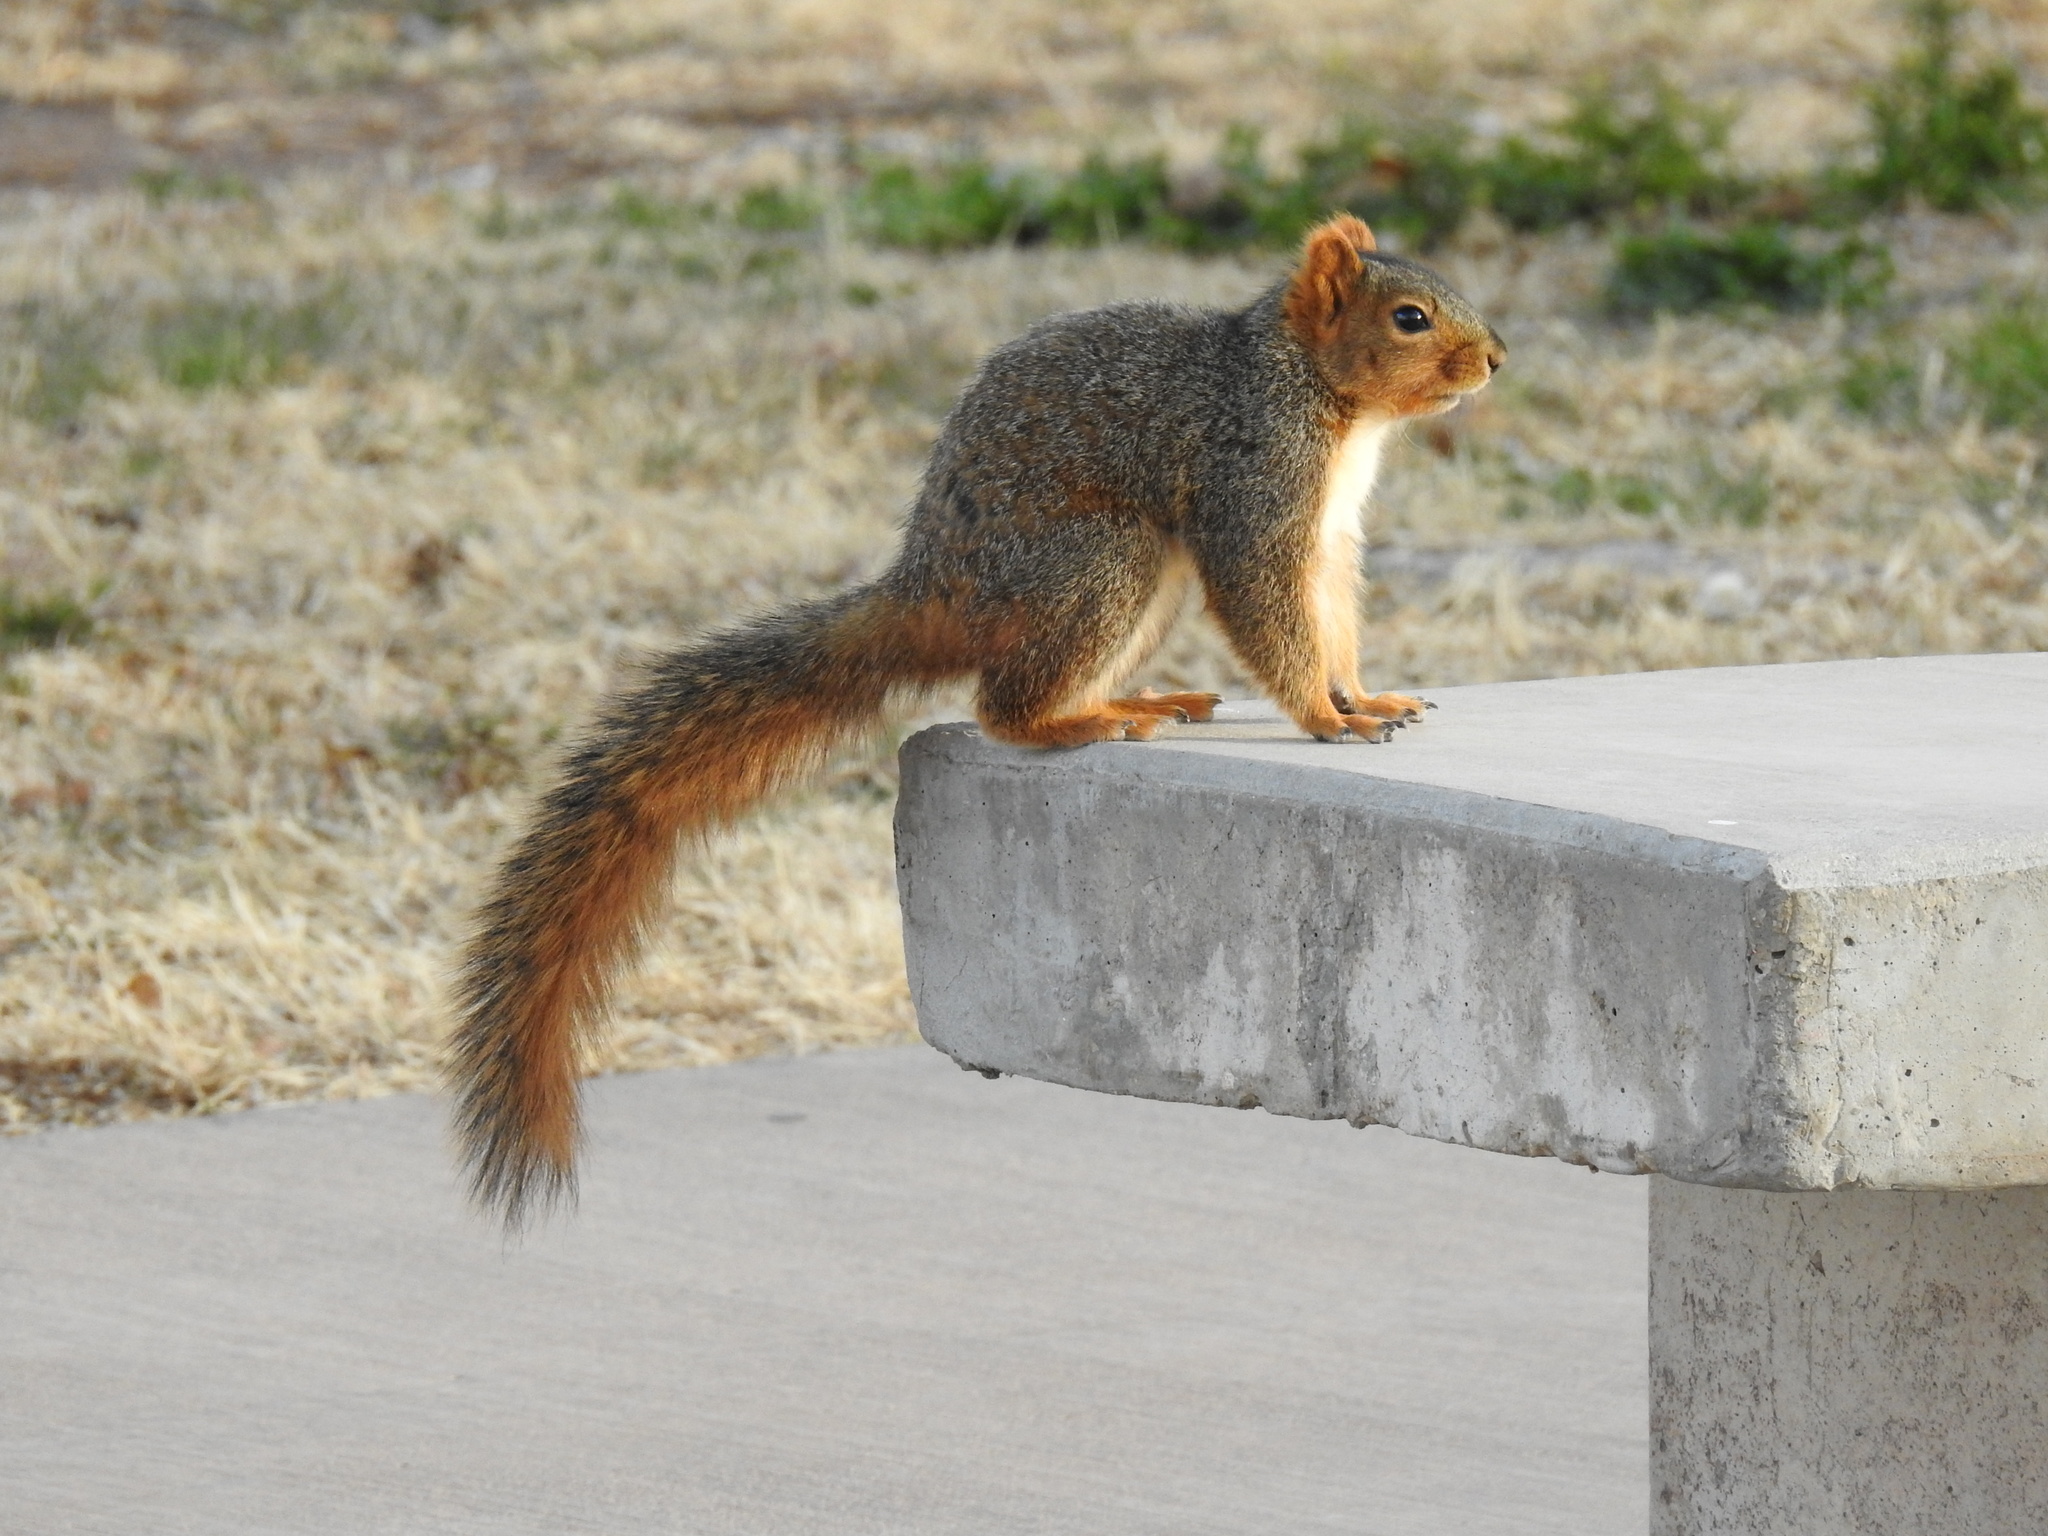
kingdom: Animalia
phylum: Chordata
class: Mammalia
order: Rodentia
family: Sciuridae
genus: Sciurus
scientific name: Sciurus niger
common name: Fox squirrel
